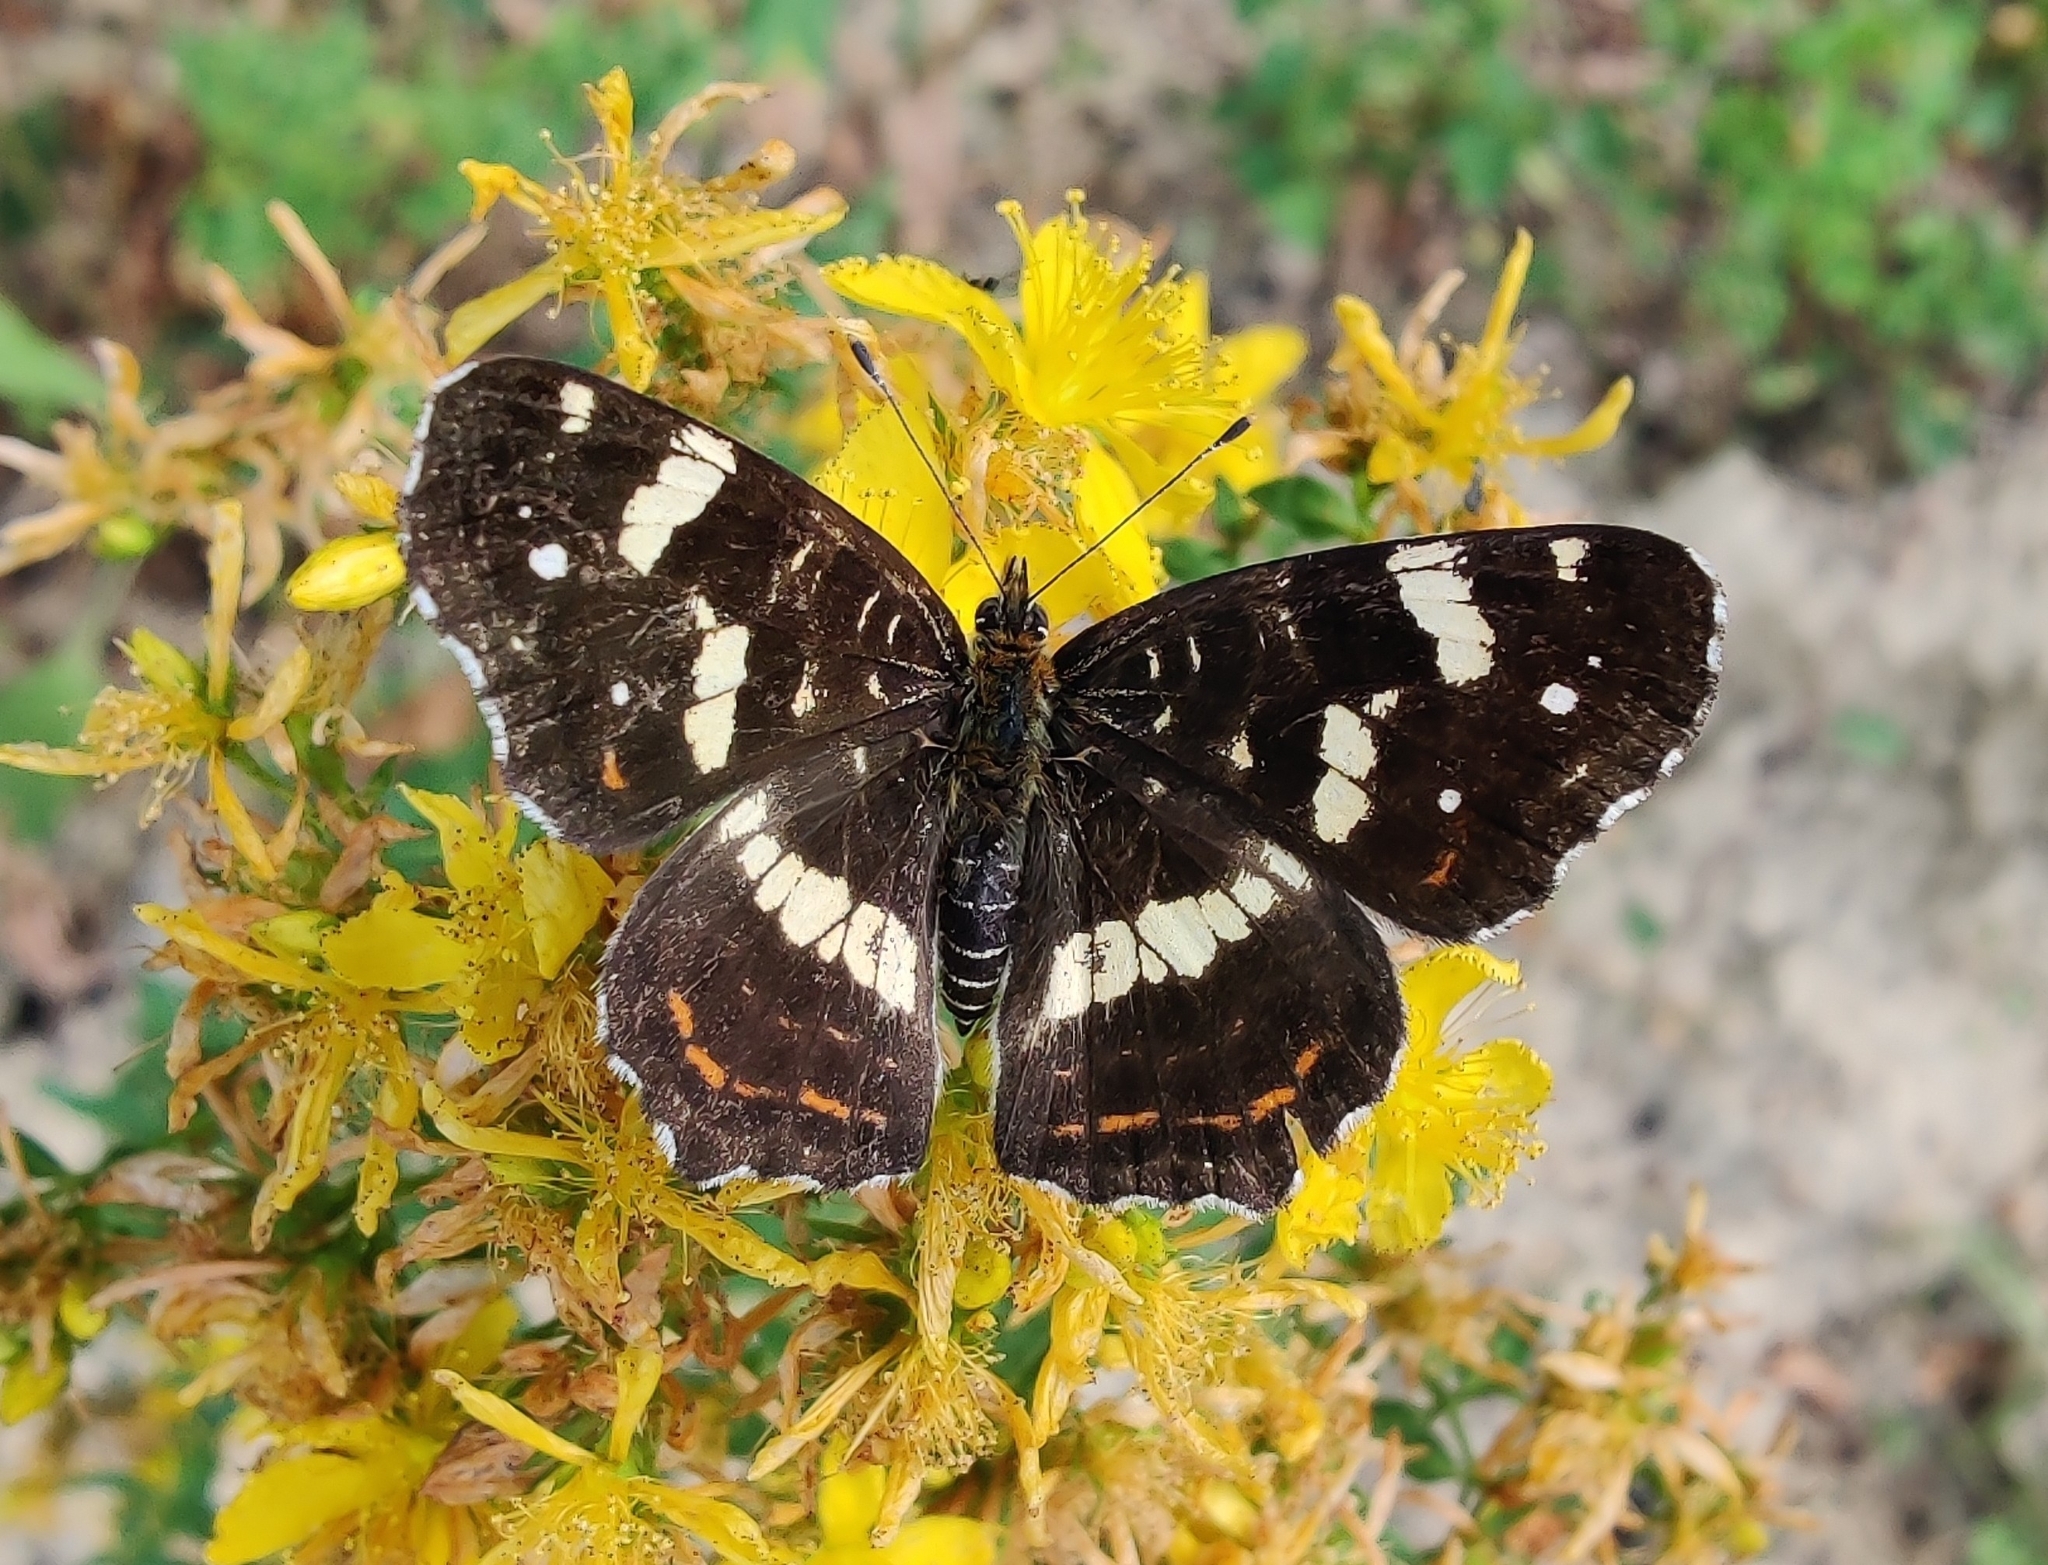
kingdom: Animalia
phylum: Arthropoda
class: Insecta
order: Lepidoptera
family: Nymphalidae
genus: Araschnia
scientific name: Araschnia levana
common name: Map butterfly
